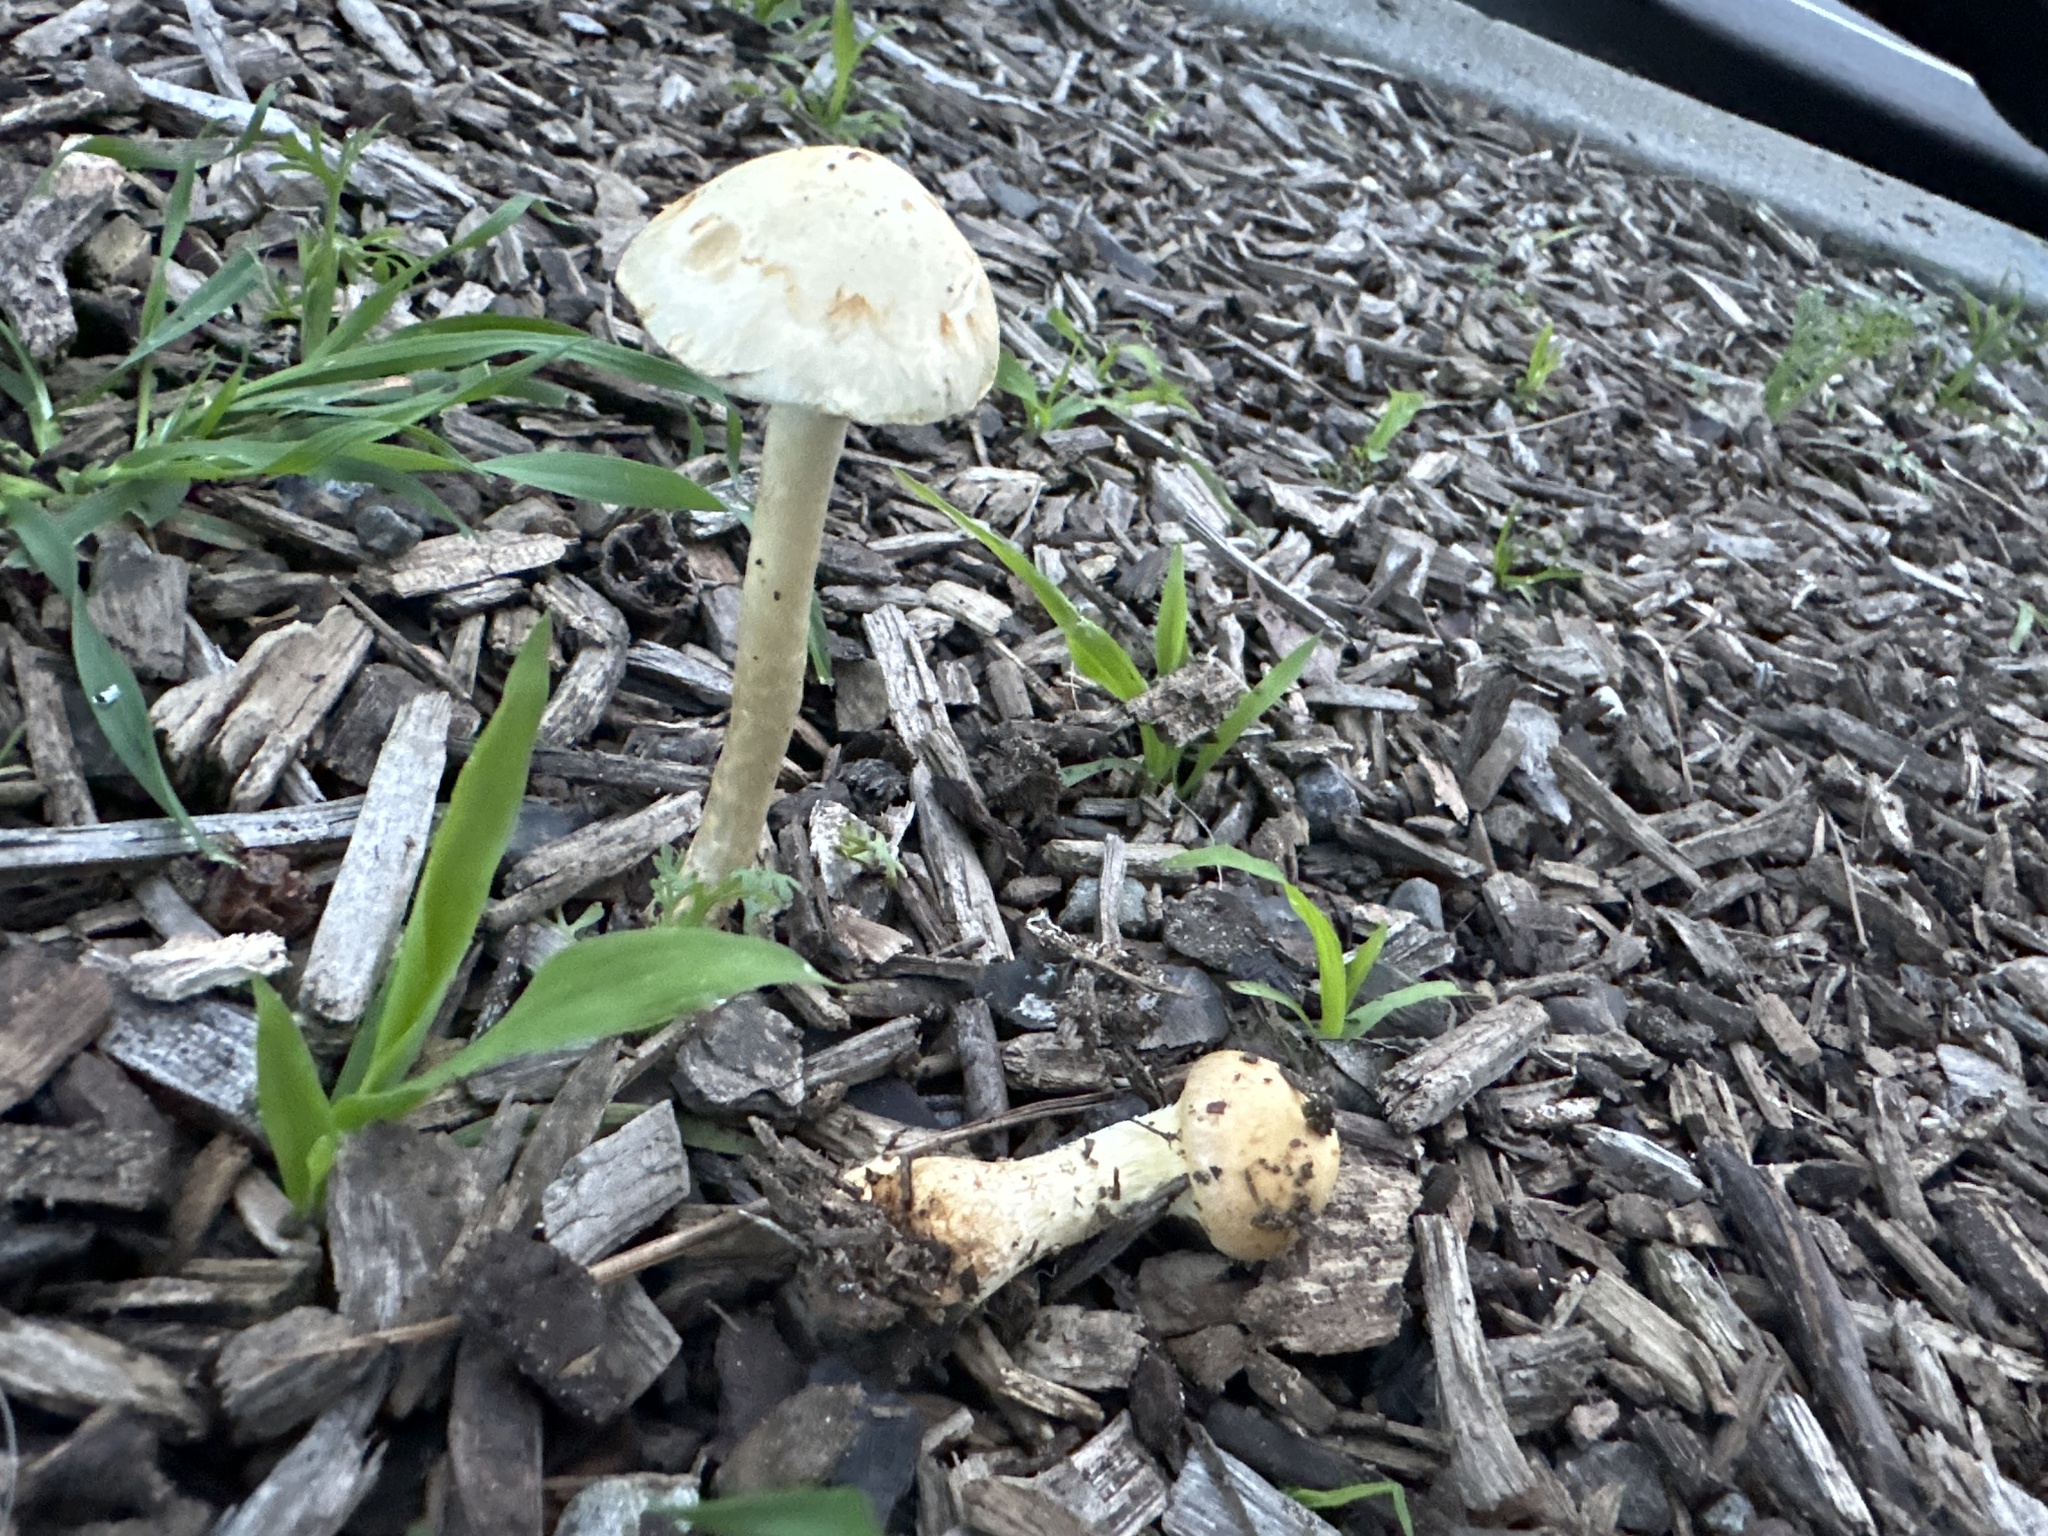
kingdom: Fungi
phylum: Basidiomycota
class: Agaricomycetes
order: Agaricales
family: Strophariaceae
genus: Leratiomyces
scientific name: Leratiomyces percevalii
